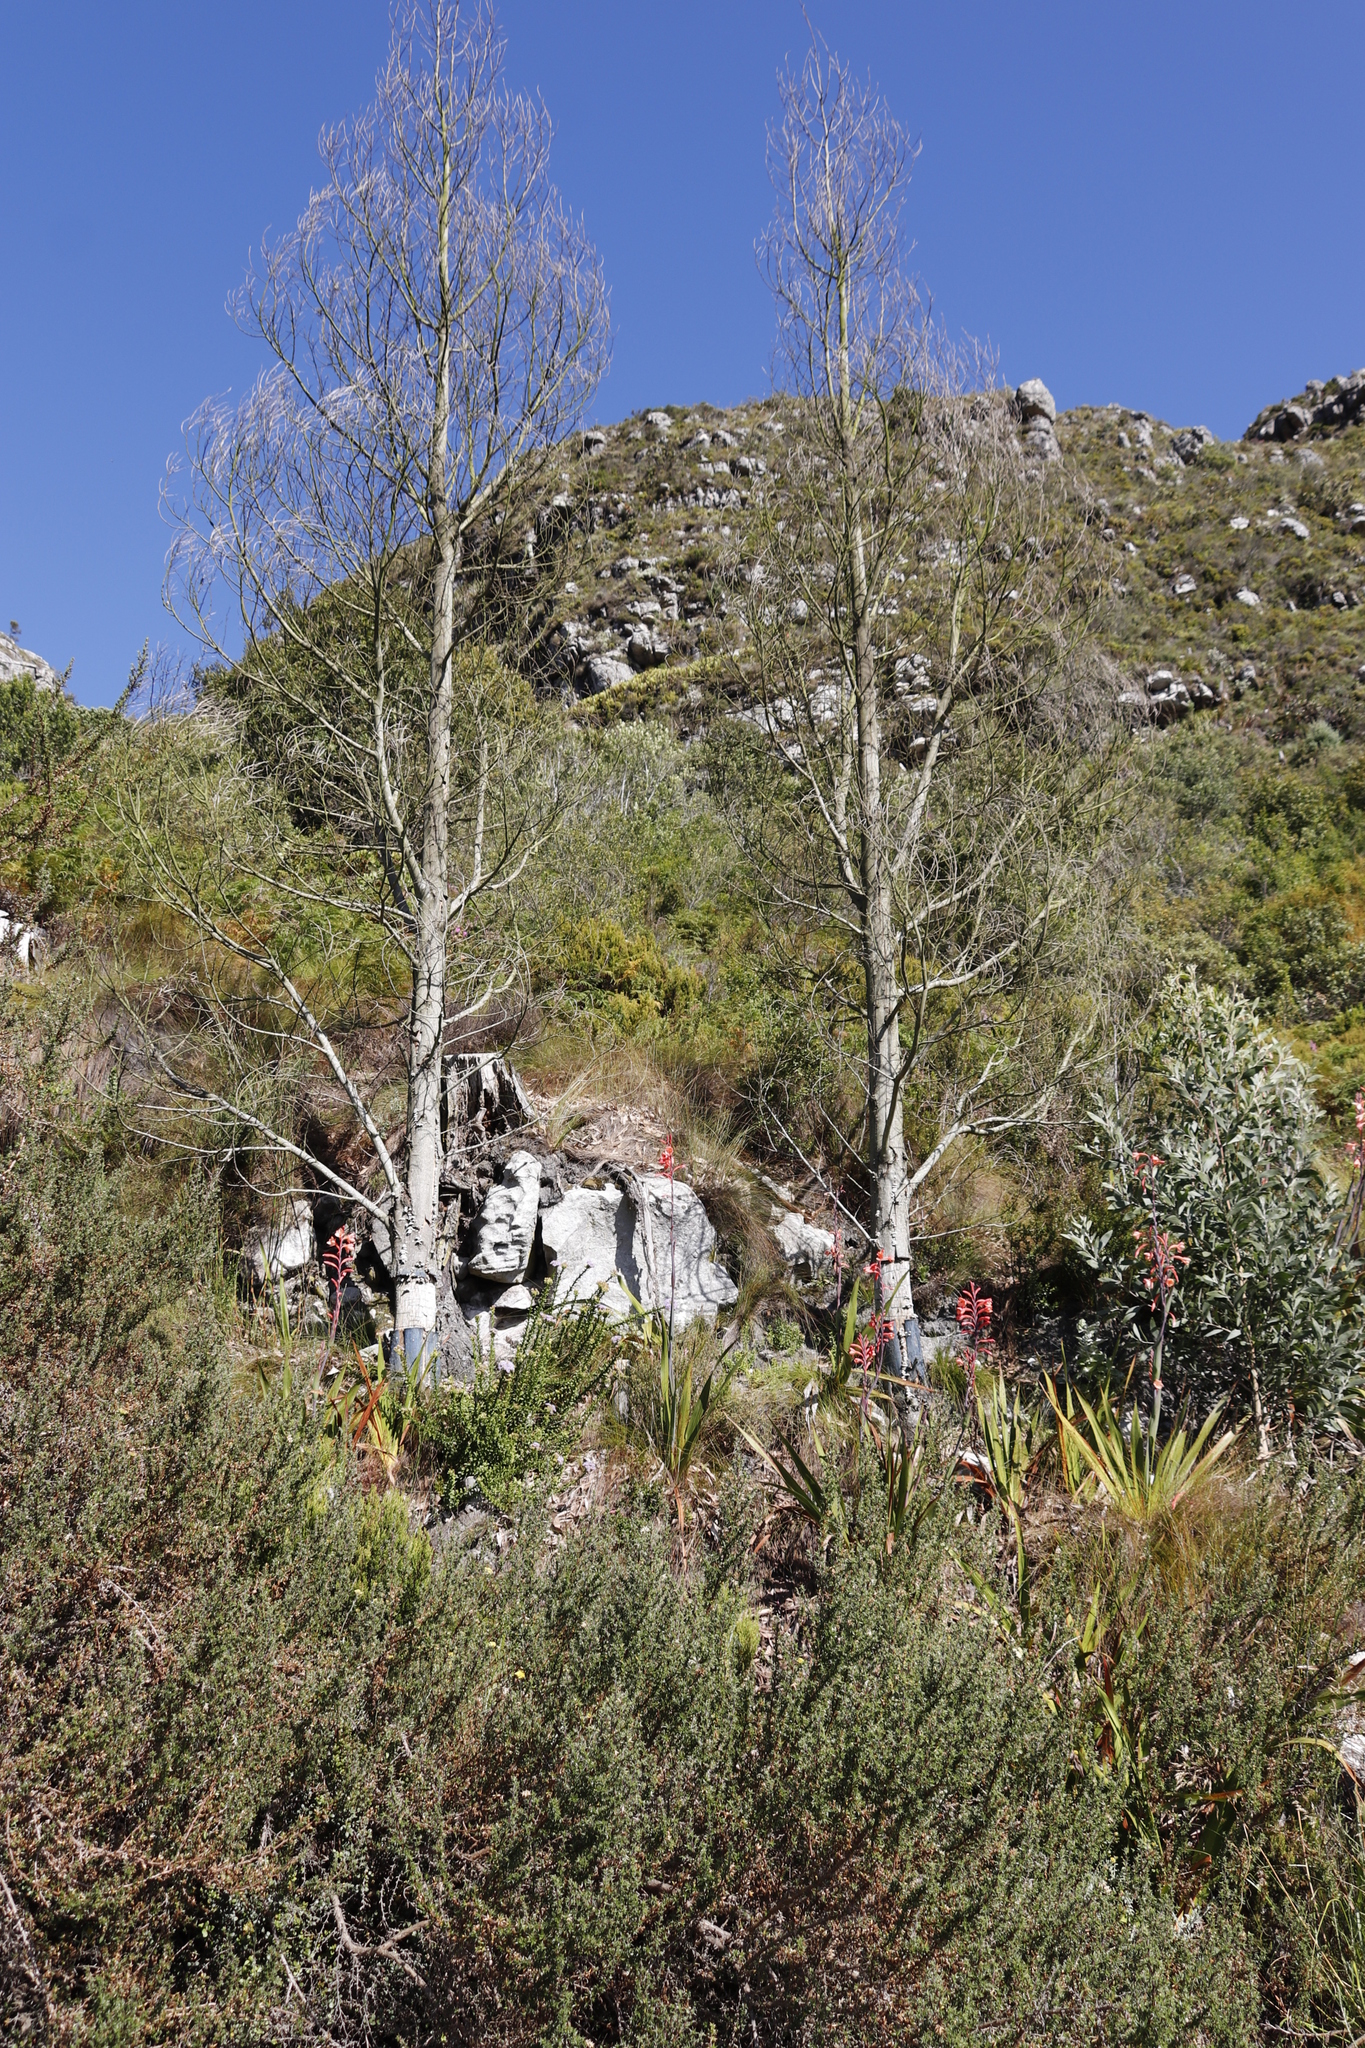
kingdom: Plantae
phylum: Tracheophyta
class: Magnoliopsida
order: Fabales
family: Fabaceae
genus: Acacia
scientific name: Acacia melanoxylon
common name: Blackwood
